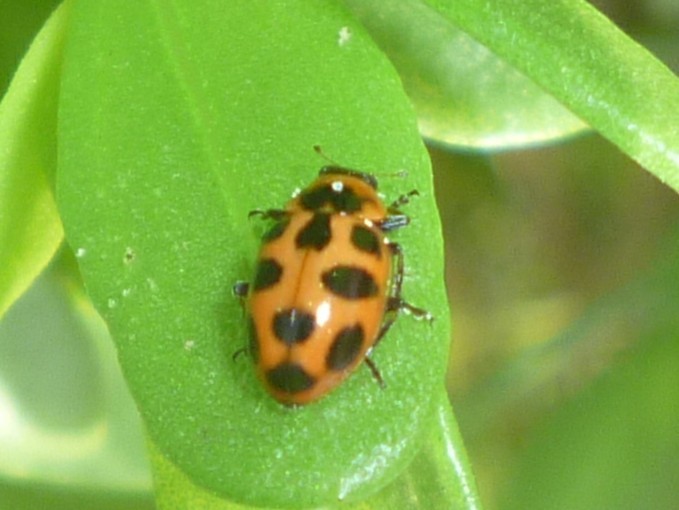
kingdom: Animalia
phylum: Arthropoda
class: Insecta
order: Coleoptera
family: Coccinellidae
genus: Naemia
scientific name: Naemia seriata
